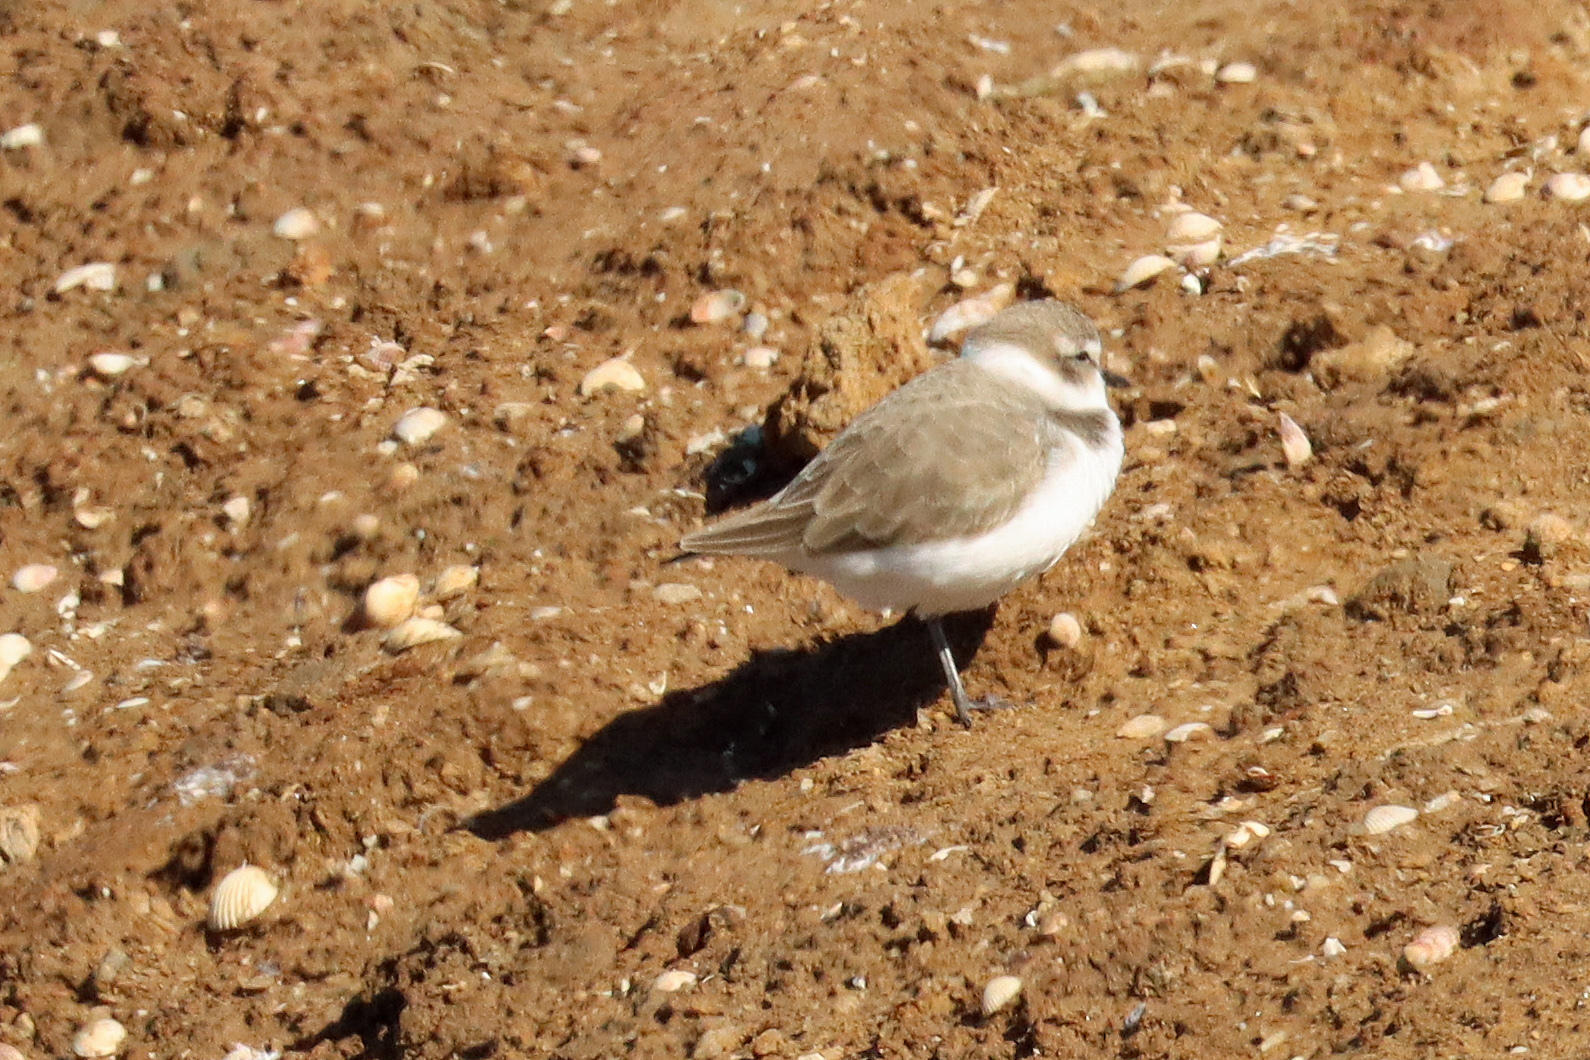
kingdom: Animalia
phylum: Chordata
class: Aves
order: Charadriiformes
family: Charadriidae
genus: Charadrius
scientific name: Charadrius alexandrinus
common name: Kentish plover
